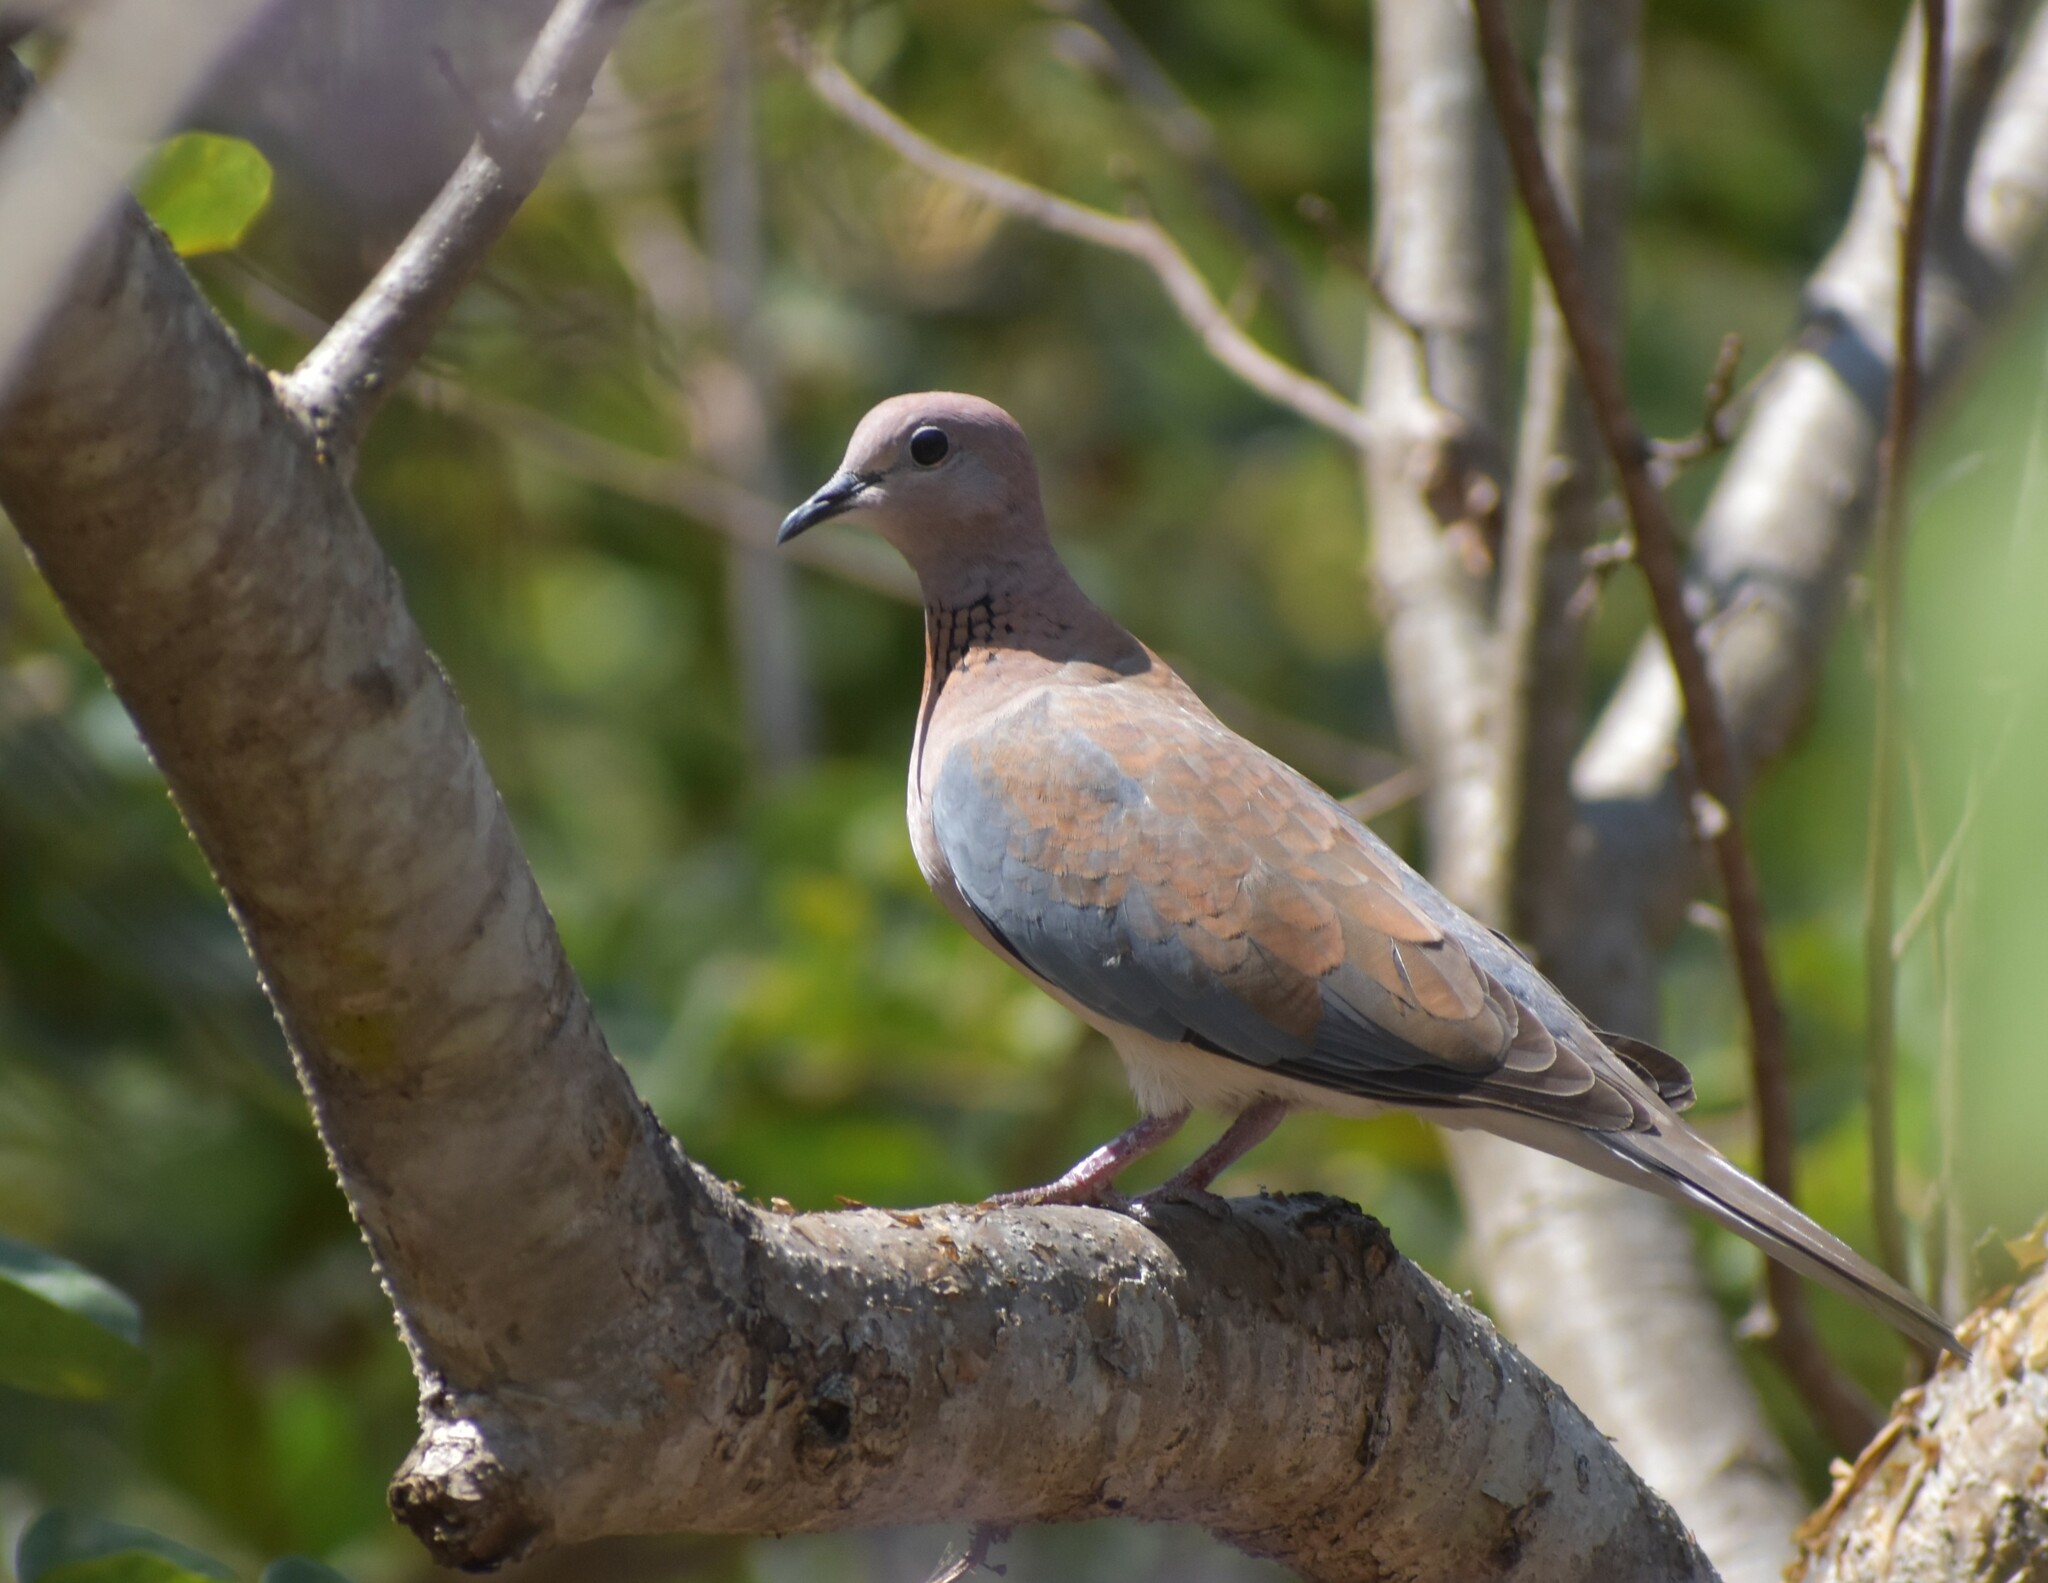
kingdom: Animalia
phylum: Chordata
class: Aves
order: Columbiformes
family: Columbidae
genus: Spilopelia
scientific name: Spilopelia senegalensis
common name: Laughing dove
